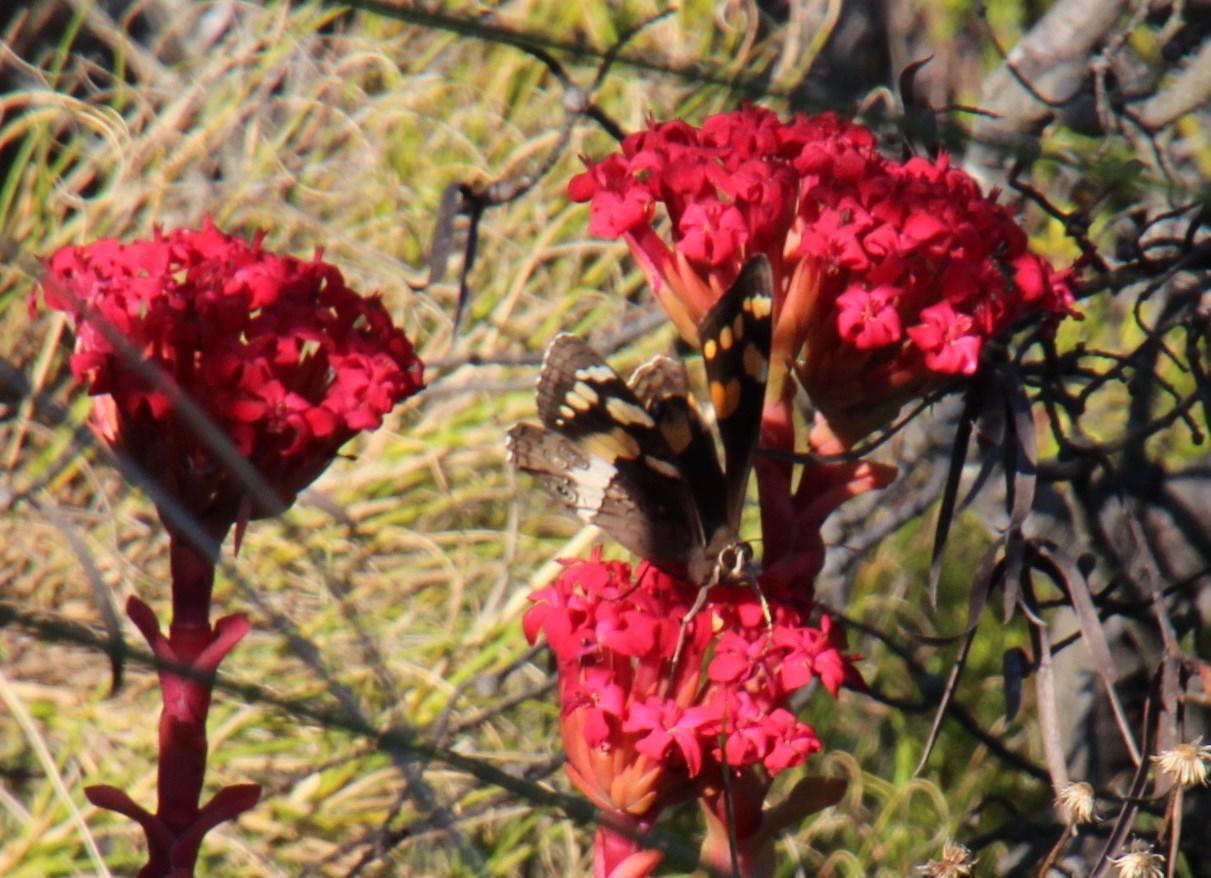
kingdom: Animalia
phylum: Arthropoda
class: Insecta
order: Lepidoptera
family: Nymphalidae
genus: Meneris
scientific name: Meneris Aeropetes tulbaghia
